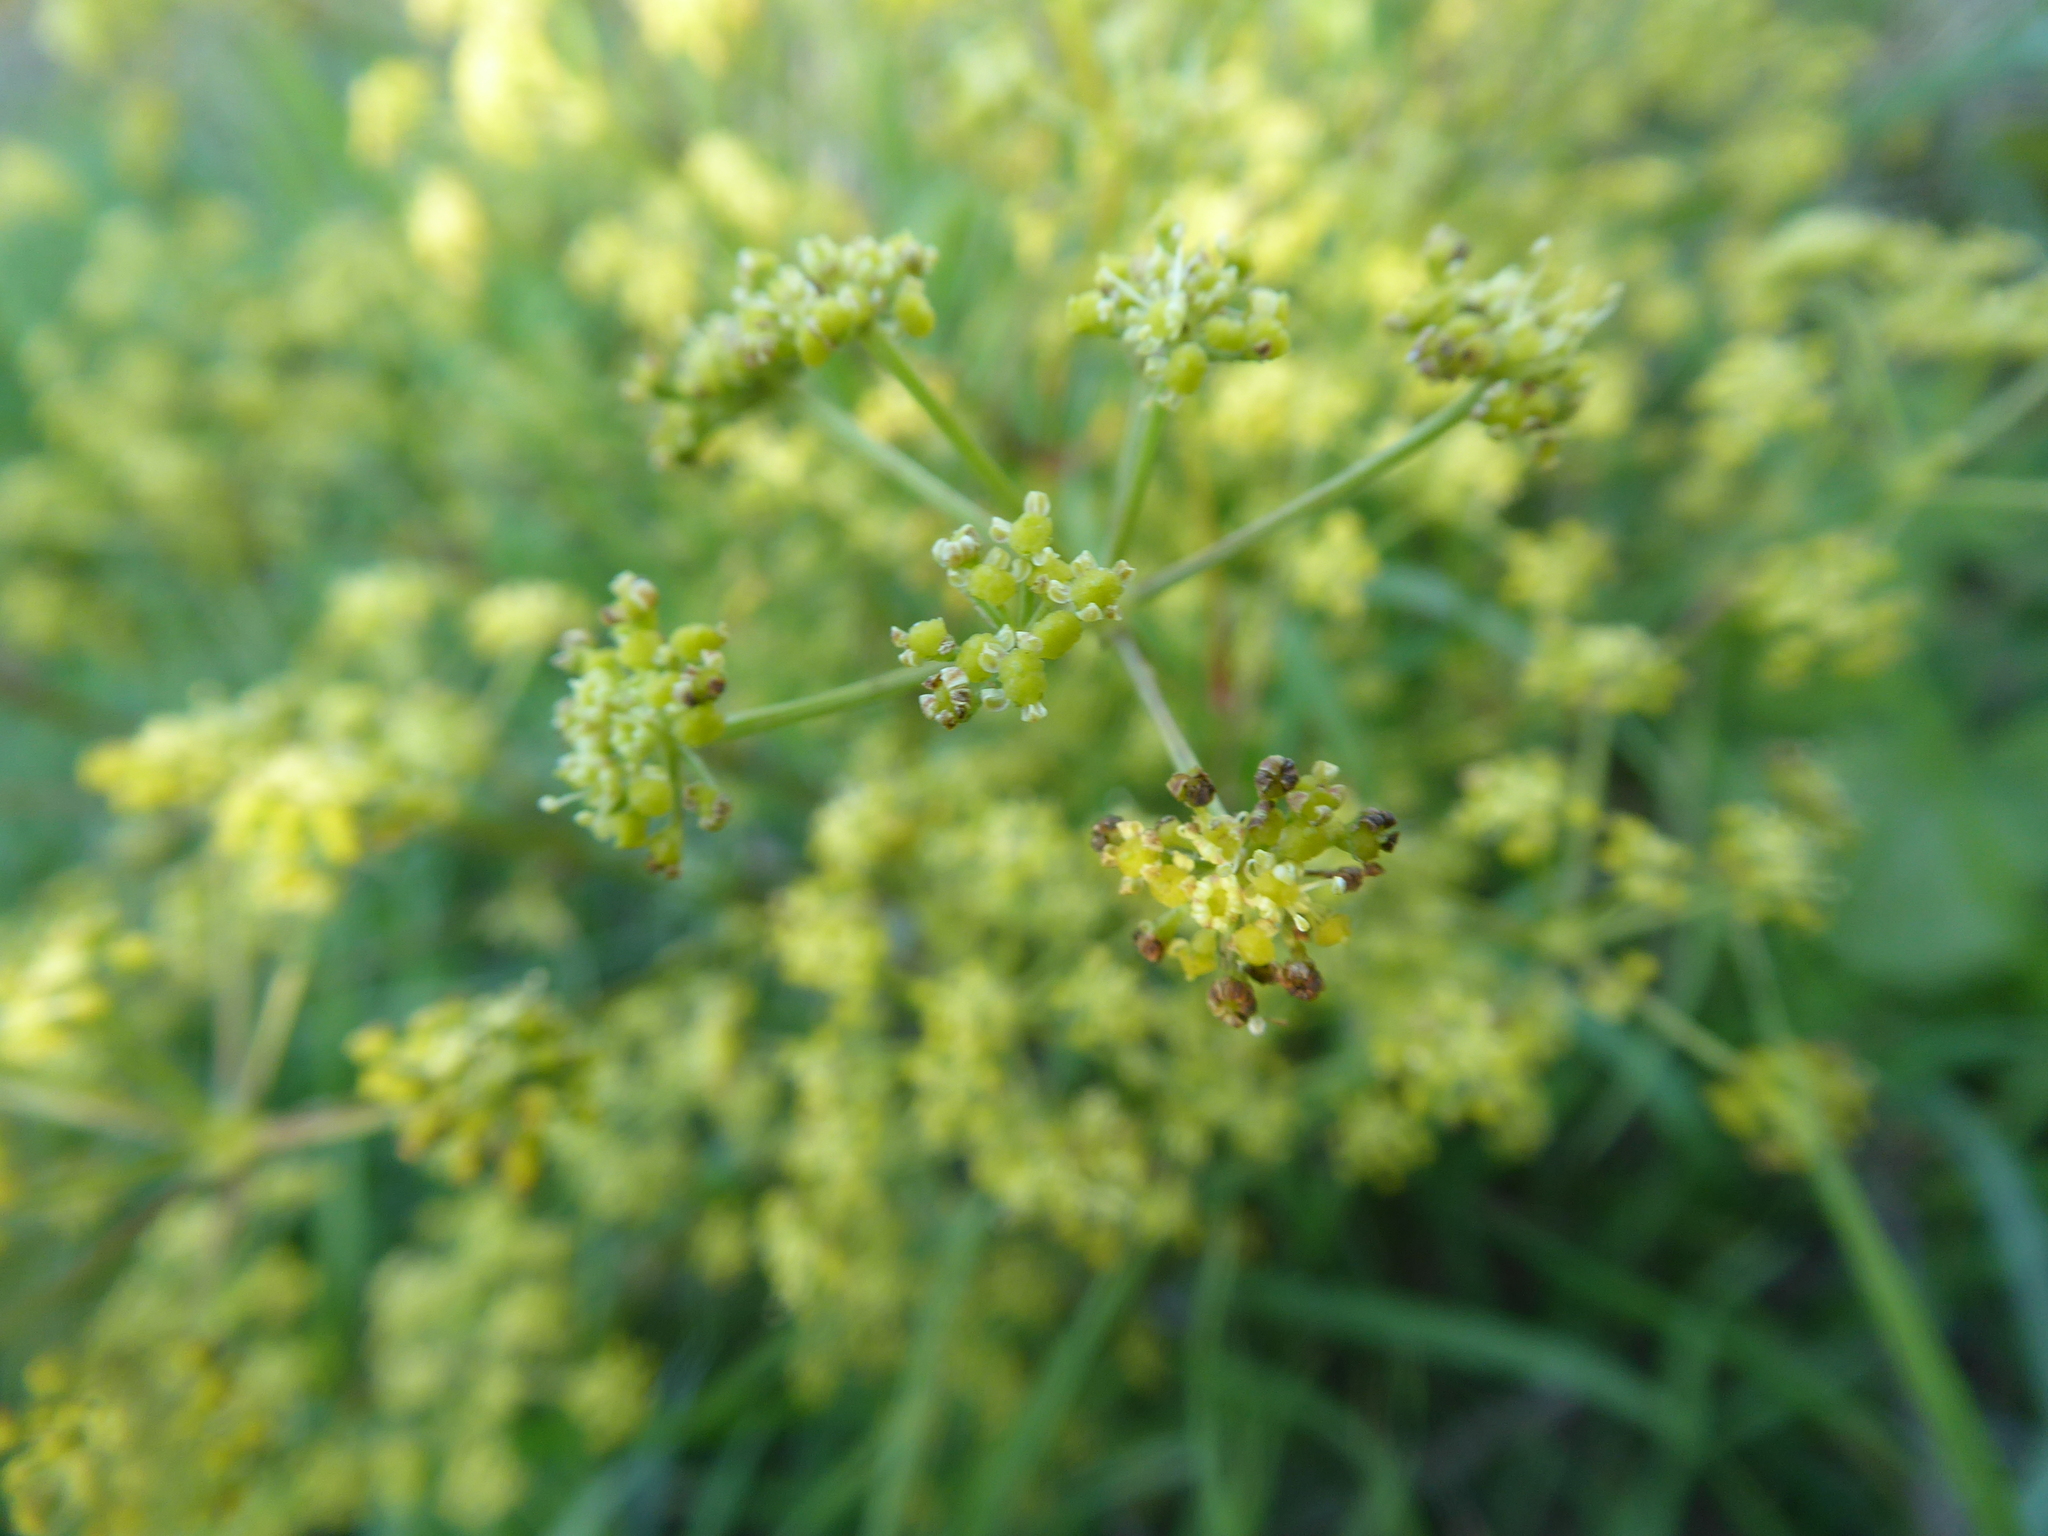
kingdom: Plantae
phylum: Tracheophyta
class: Magnoliopsida
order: Apiales
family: Apiaceae
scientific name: Apiaceae
